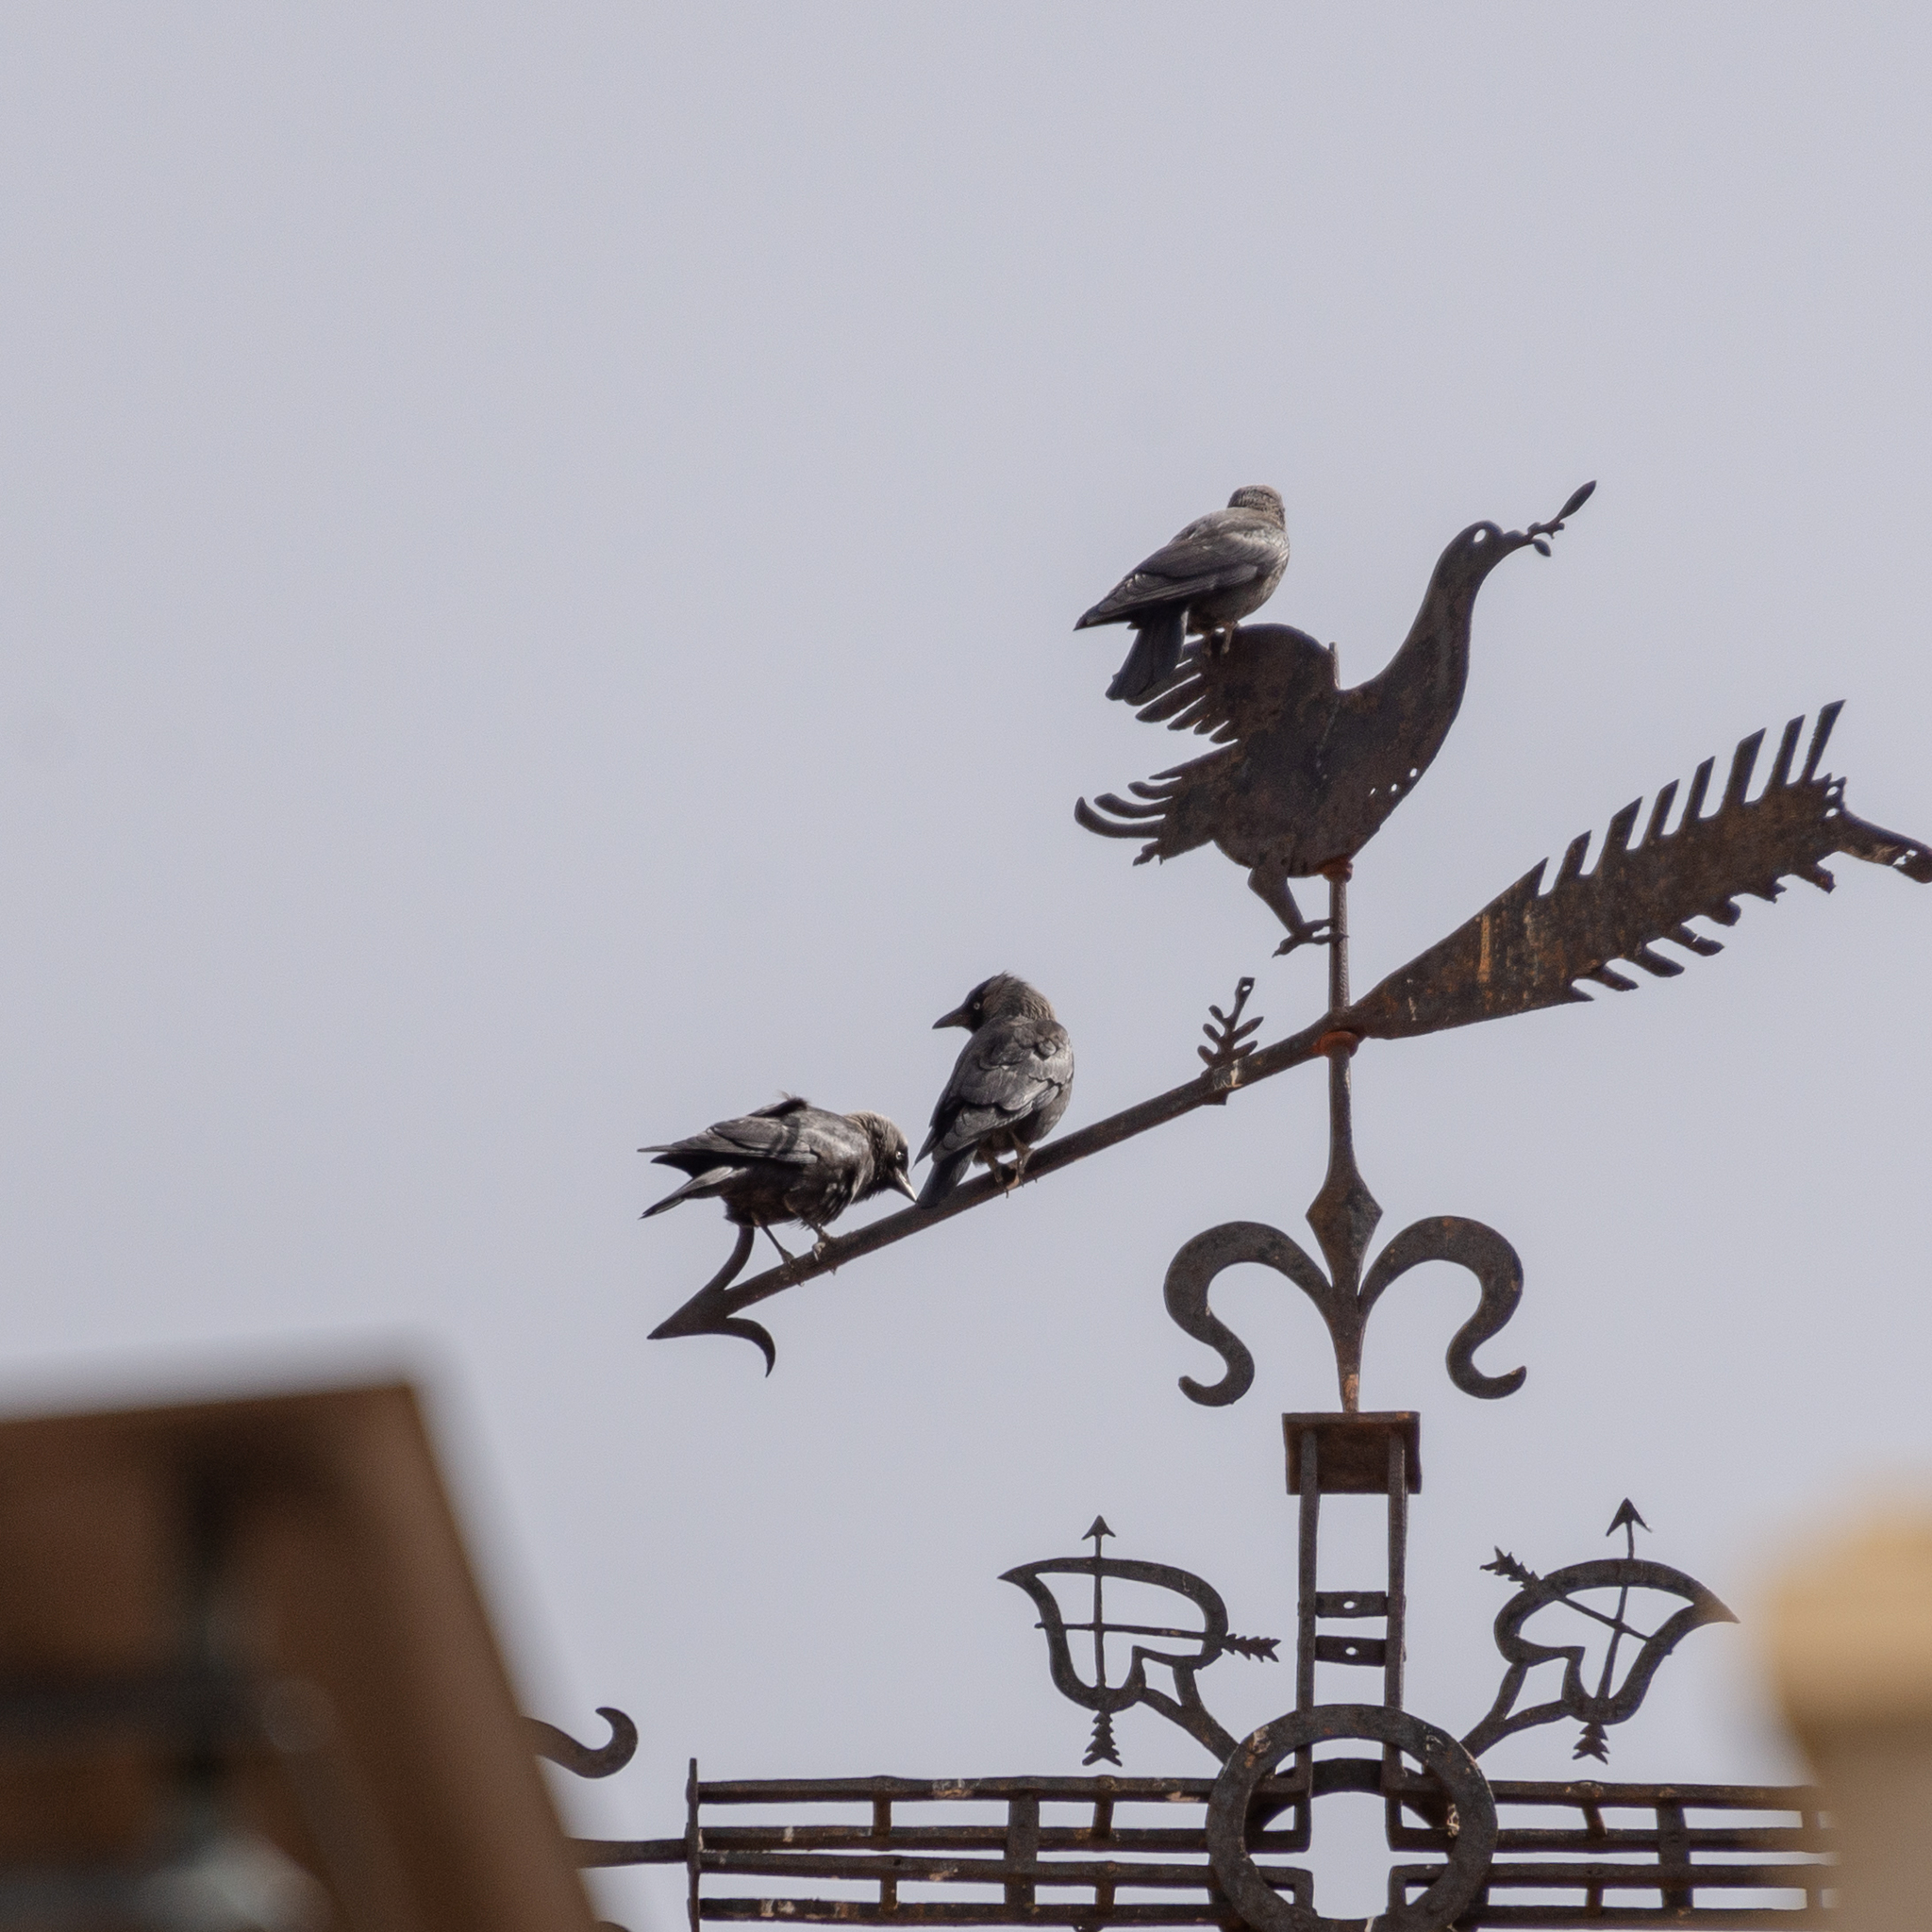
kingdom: Animalia
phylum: Chordata
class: Aves
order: Passeriformes
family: Corvidae
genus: Coloeus
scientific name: Coloeus monedula
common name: Western jackdaw
